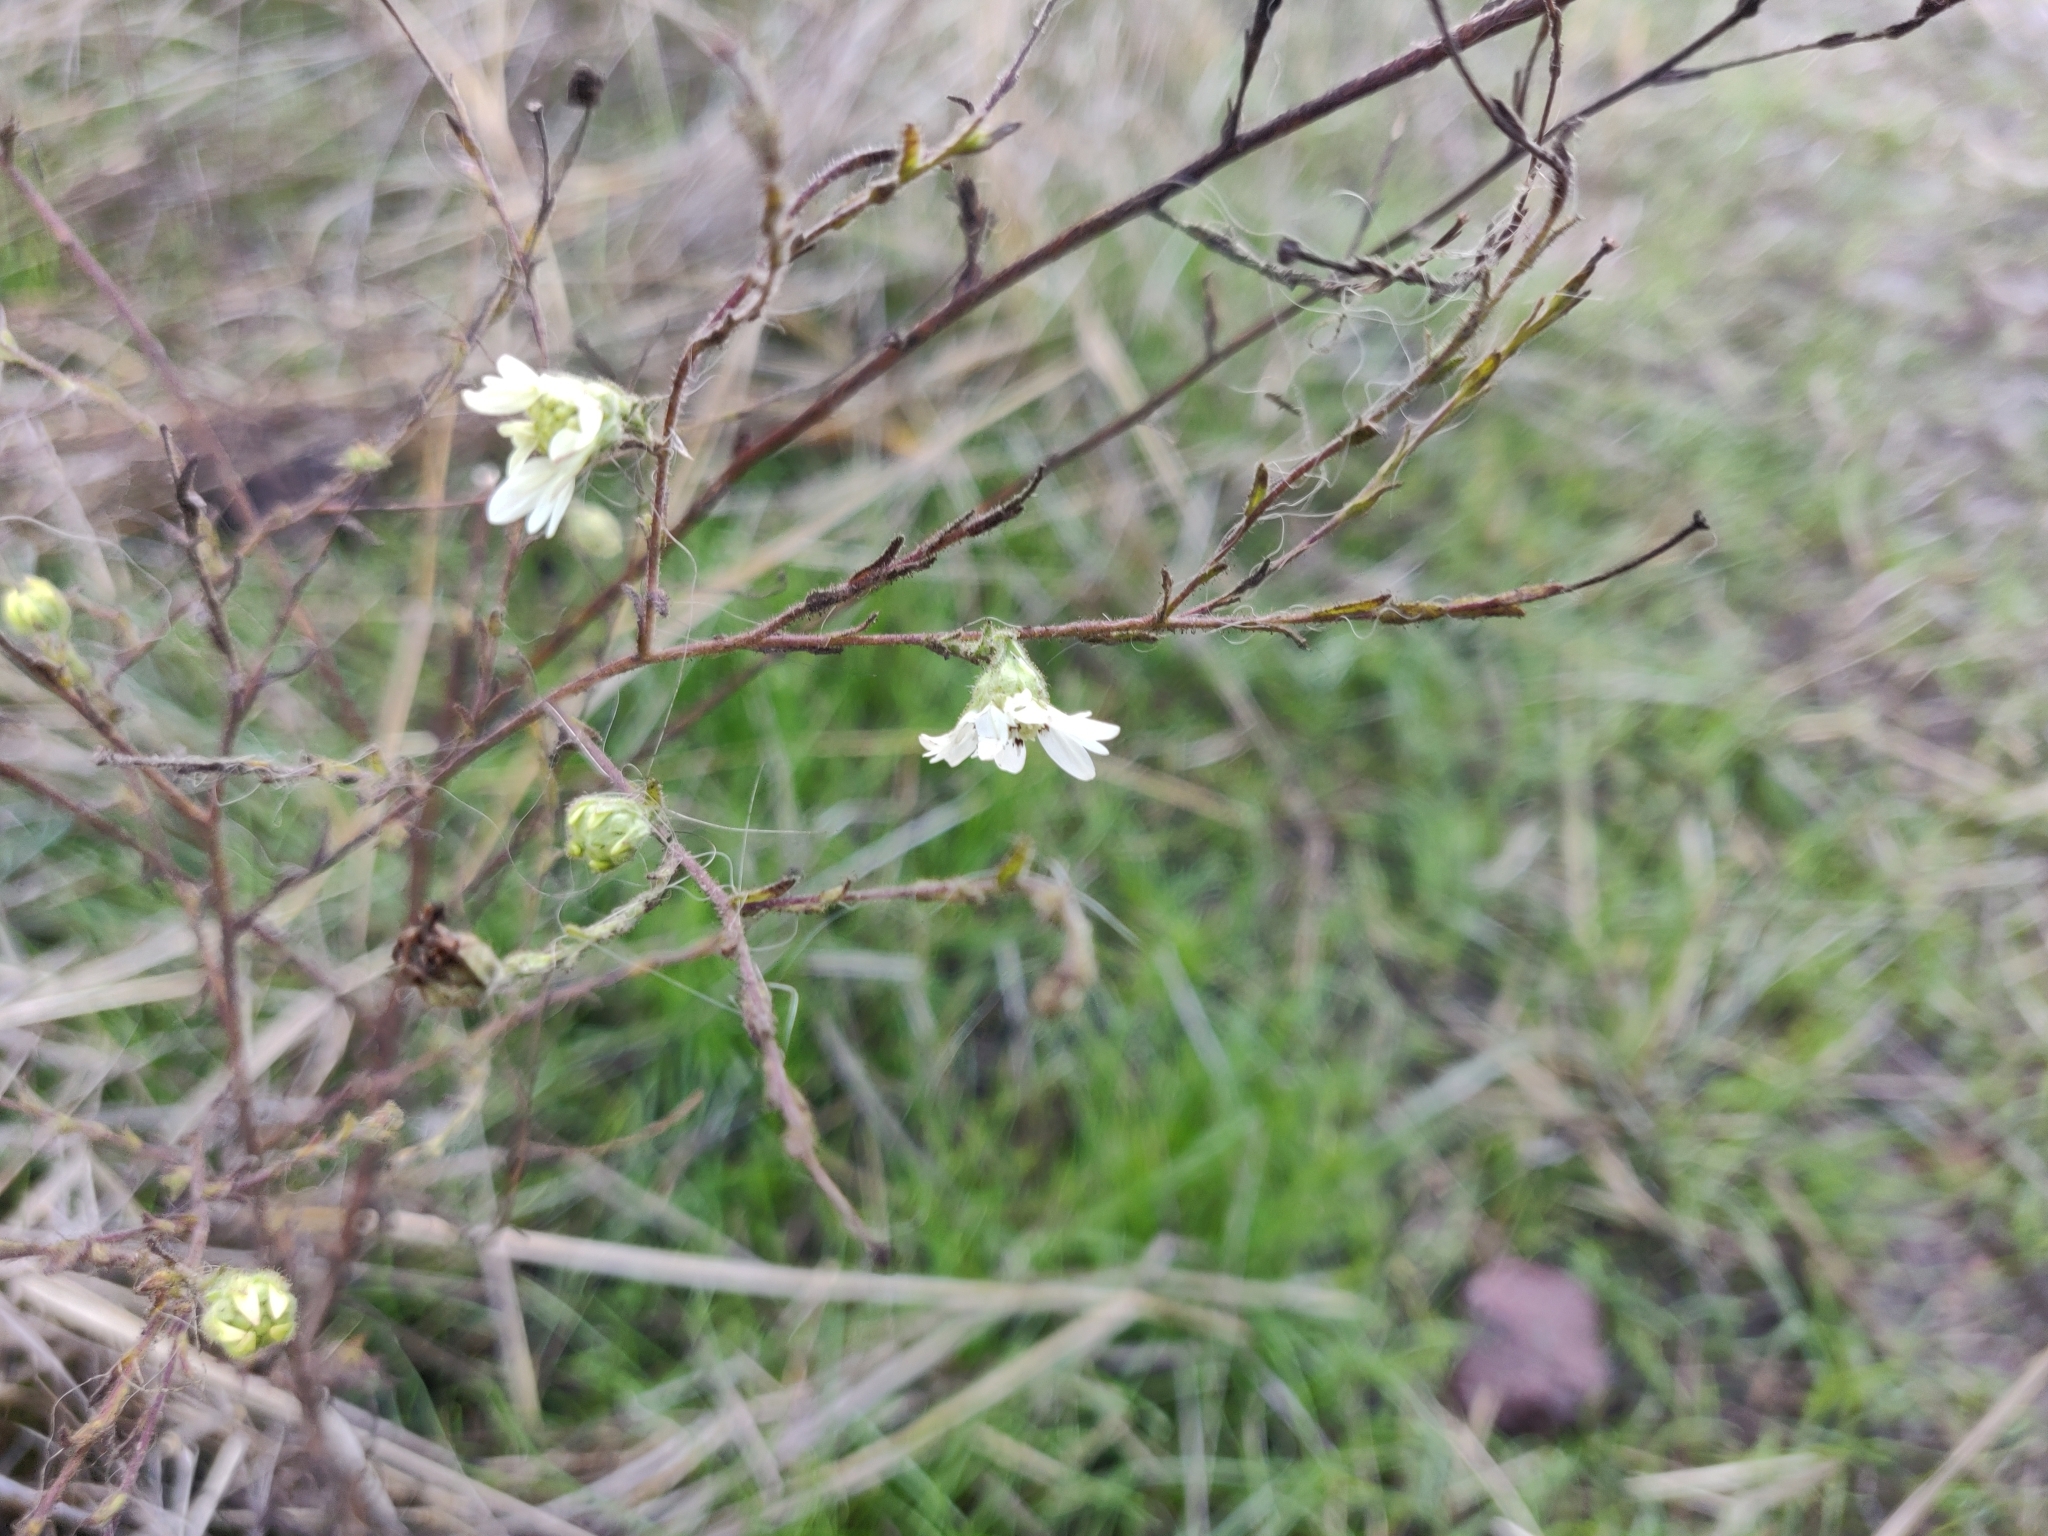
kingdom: Plantae
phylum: Tracheophyta
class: Magnoliopsida
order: Asterales
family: Asteraceae
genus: Hemizonia
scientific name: Hemizonia congesta
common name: Hayfield tarweed
